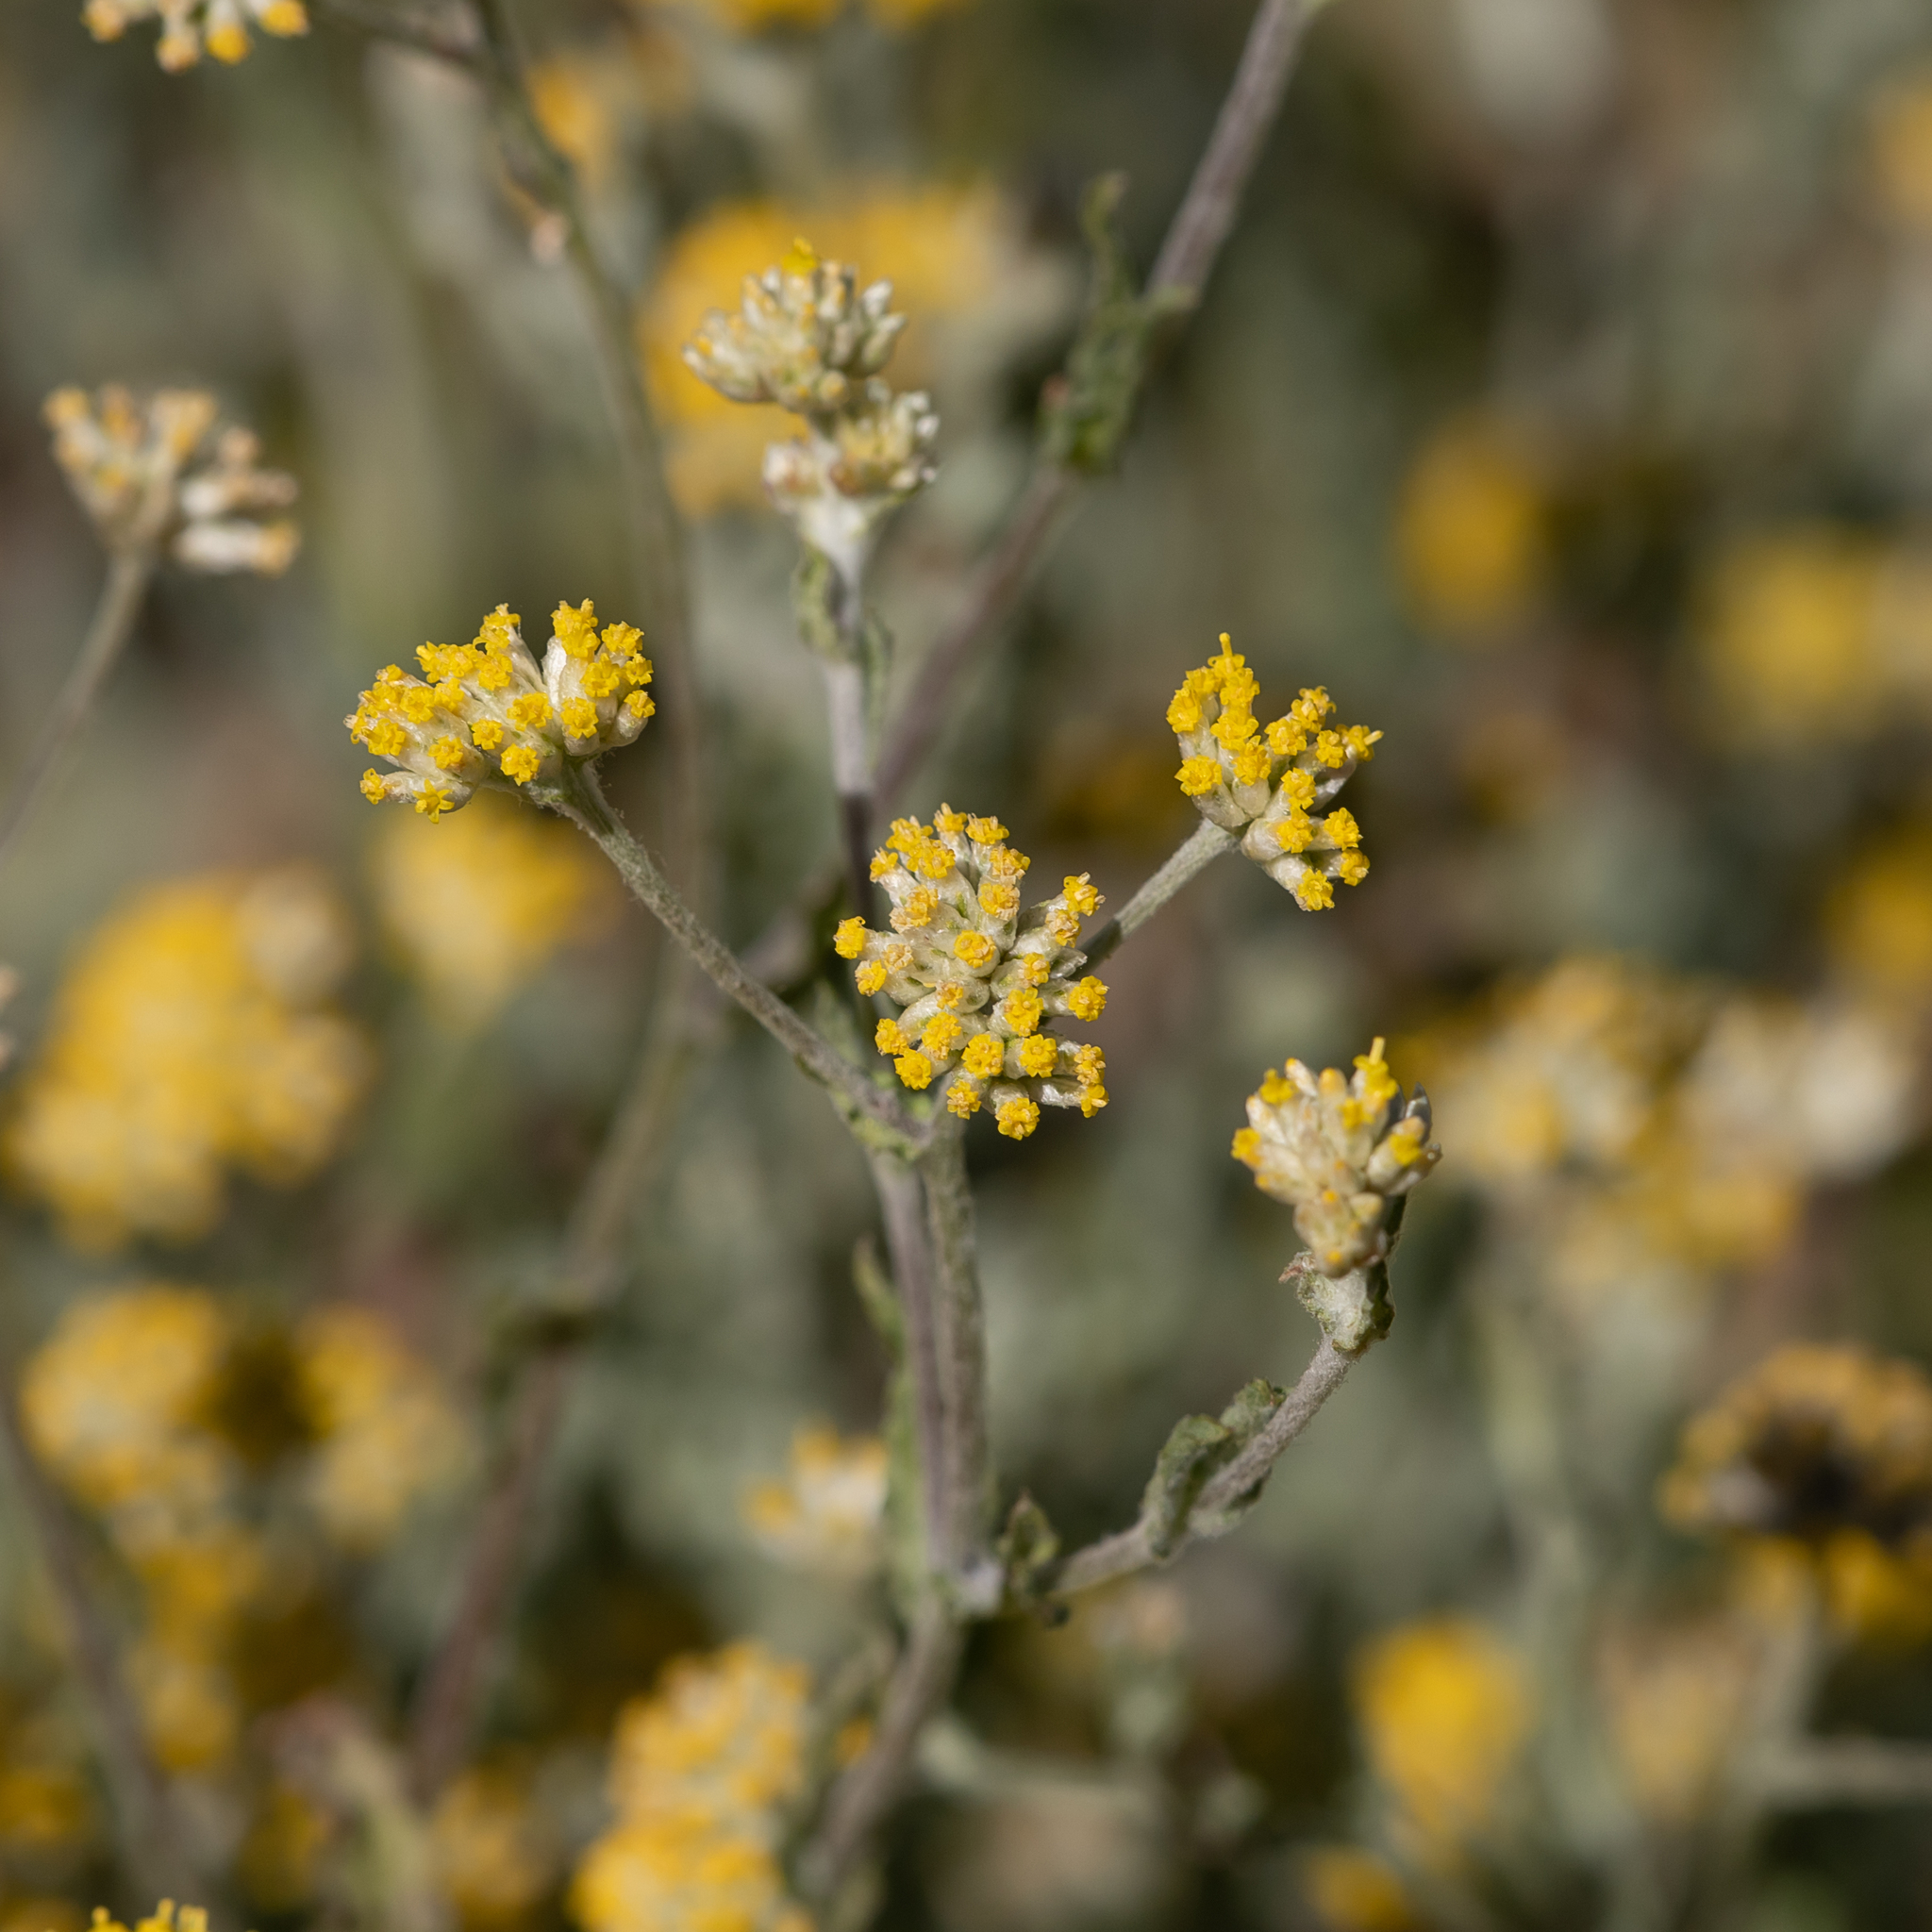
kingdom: Plantae
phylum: Tracheophyta
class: Magnoliopsida
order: Asterales
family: Asteraceae
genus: Rhodanthe
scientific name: Rhodanthe moschata
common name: Musk sunray
